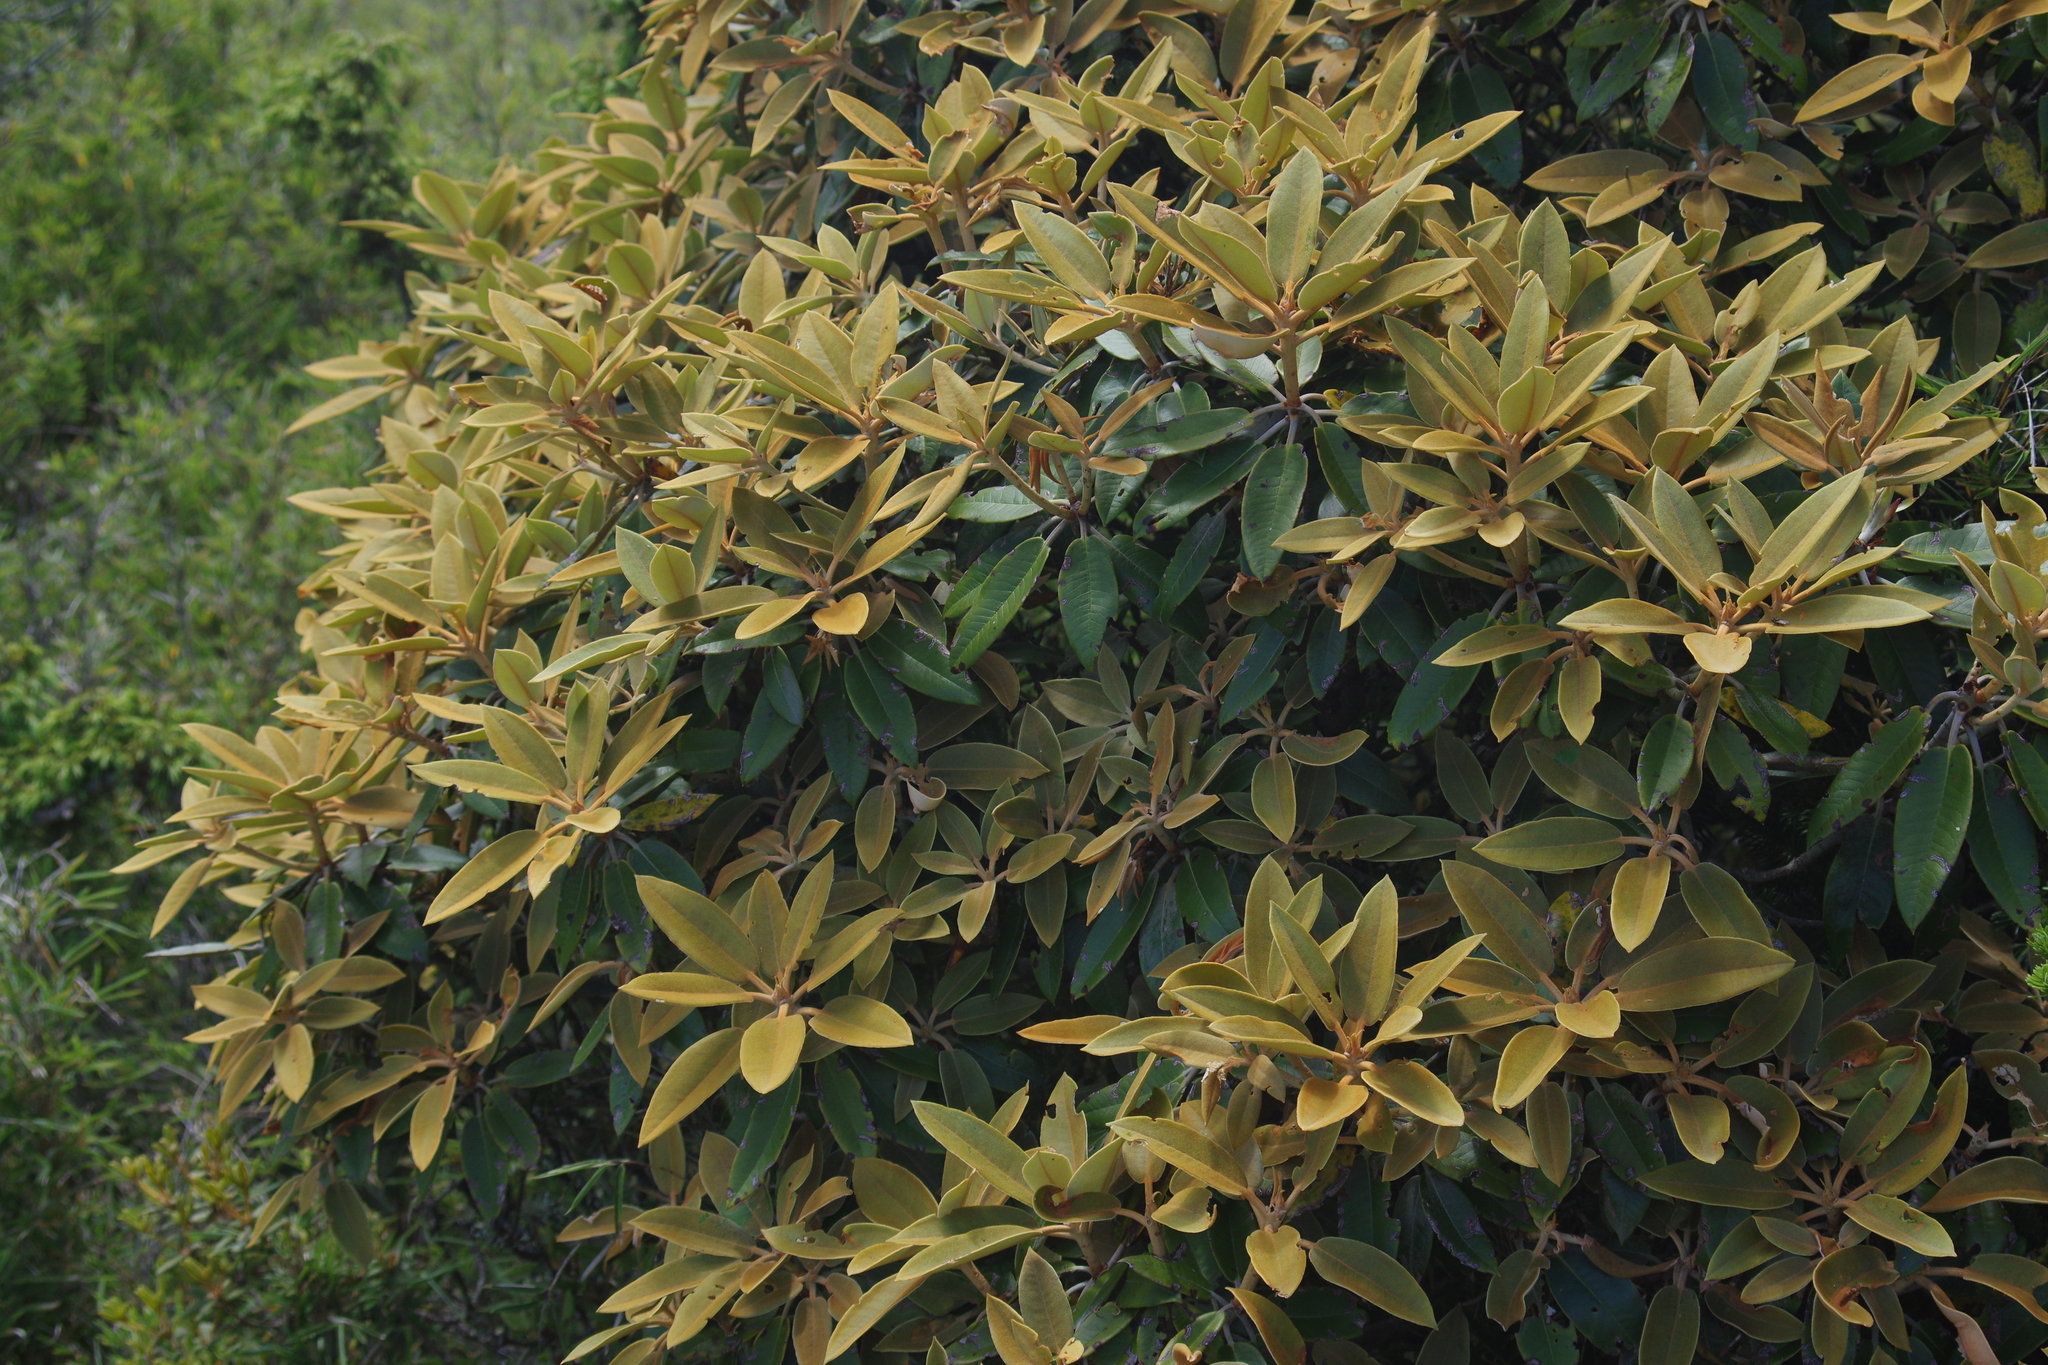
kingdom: Plantae
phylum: Tracheophyta
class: Magnoliopsida
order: Ericales
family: Ericaceae
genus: Rhododendron
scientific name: Rhododendron hyperythrum
